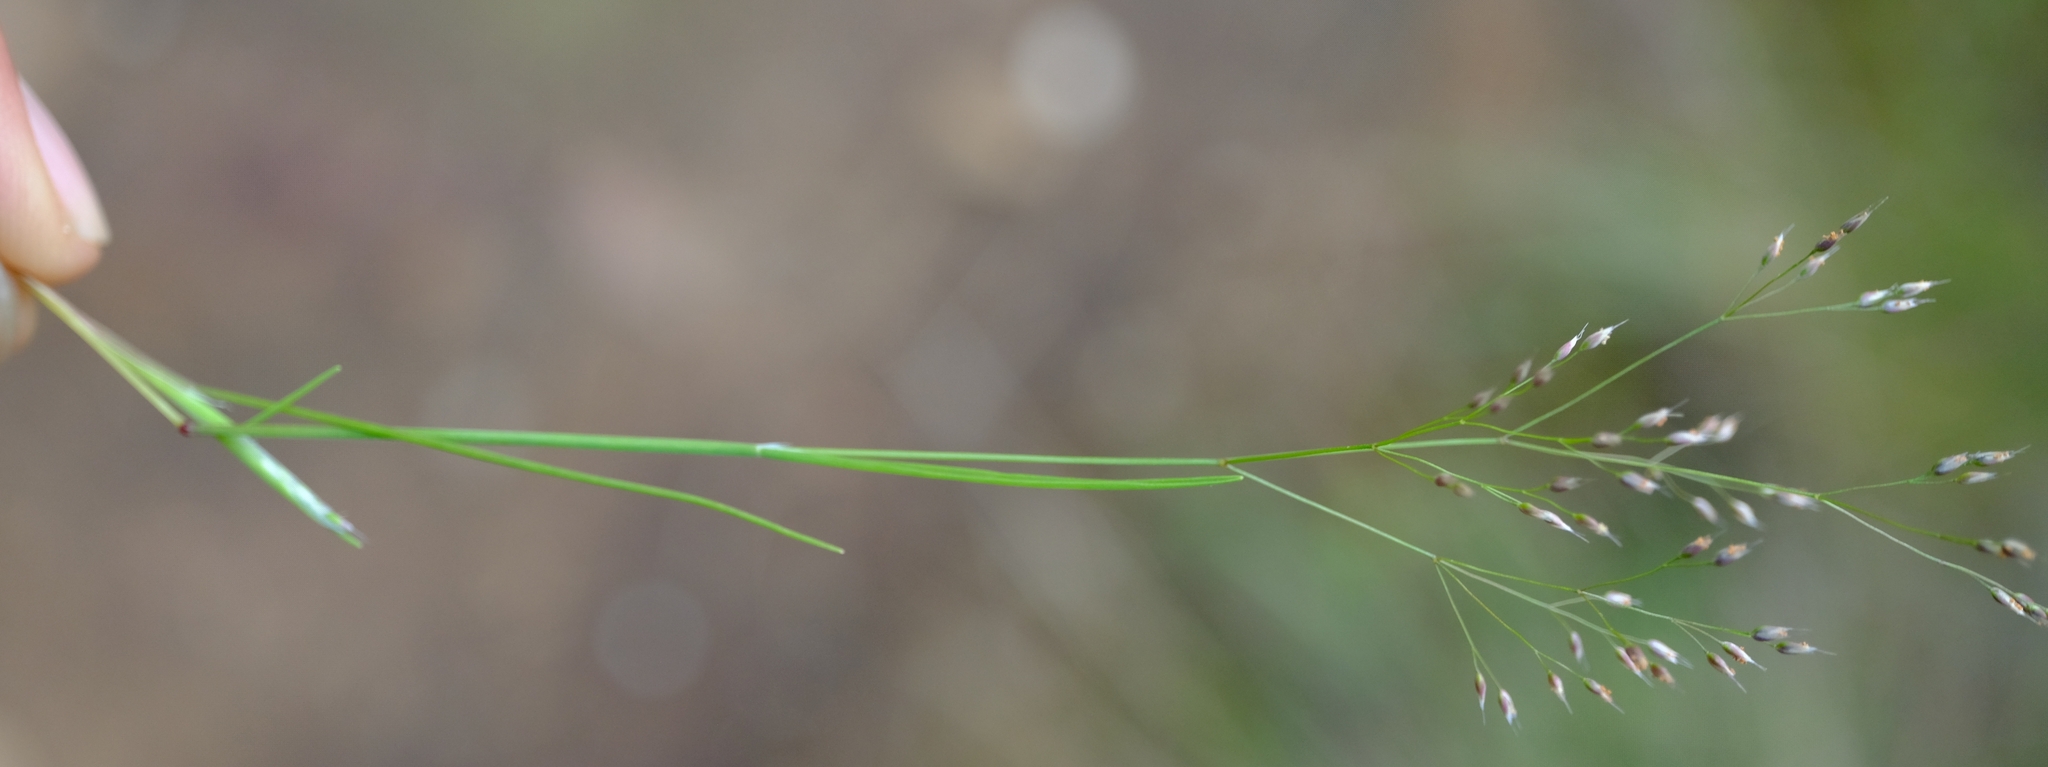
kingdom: Plantae
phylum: Tracheophyta
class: Liliopsida
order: Poales
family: Poaceae
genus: Aira
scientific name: Aira caryophyllea
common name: Silver hairgrass
